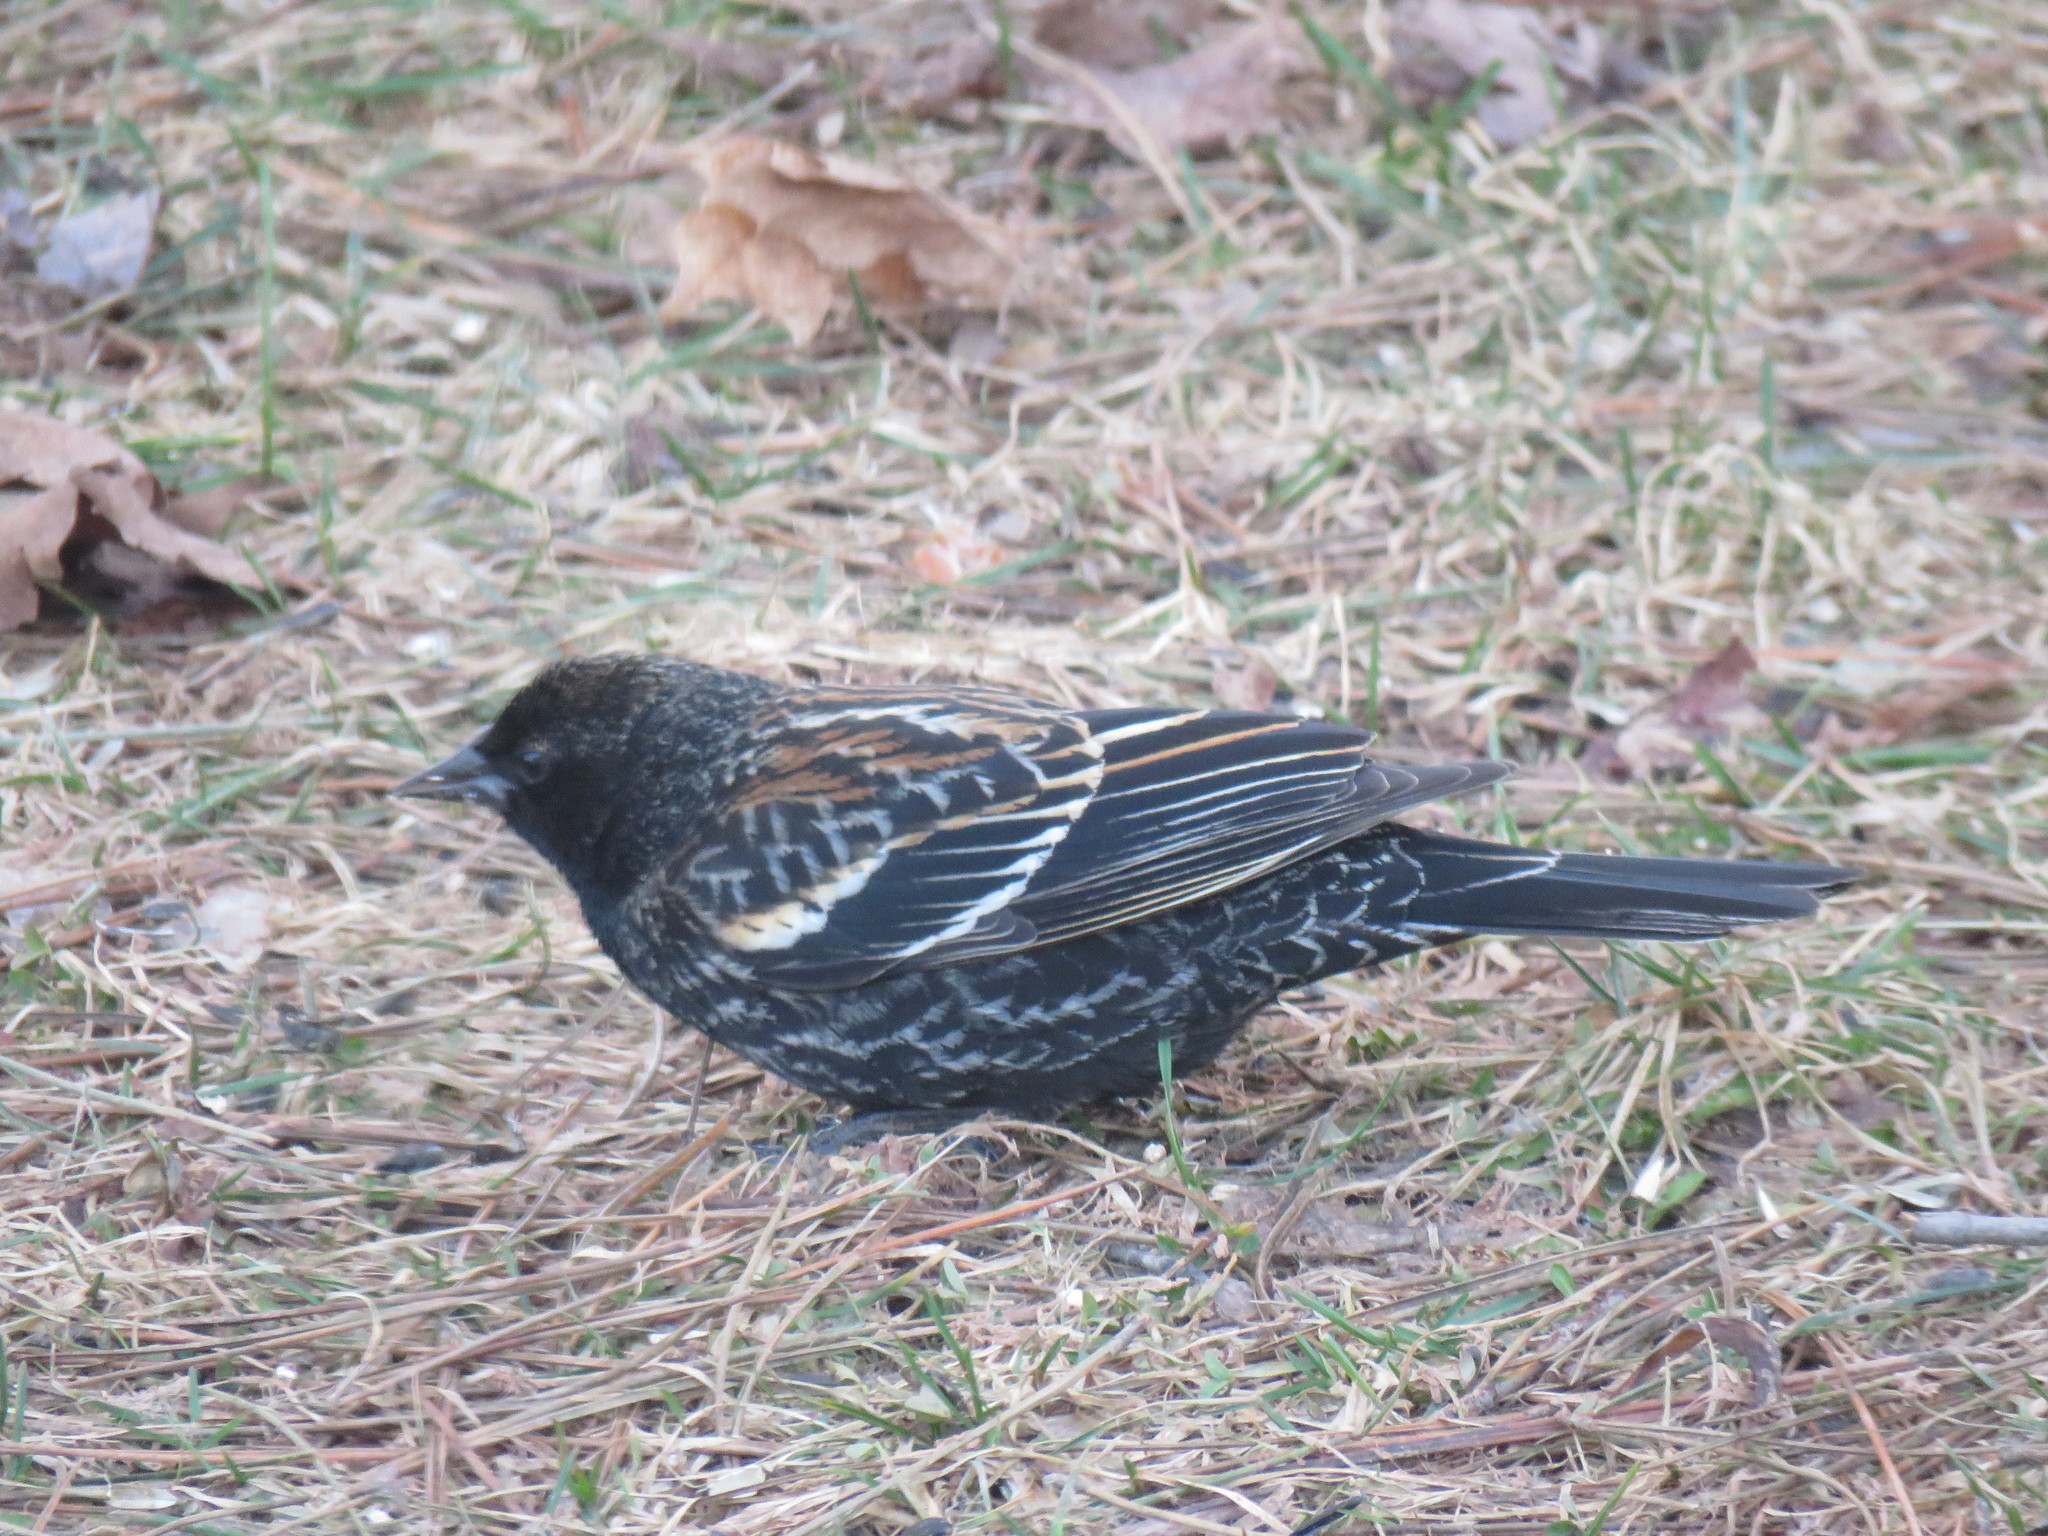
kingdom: Animalia
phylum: Chordata
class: Aves
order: Passeriformes
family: Icteridae
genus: Agelaius
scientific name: Agelaius phoeniceus
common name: Red-winged blackbird
